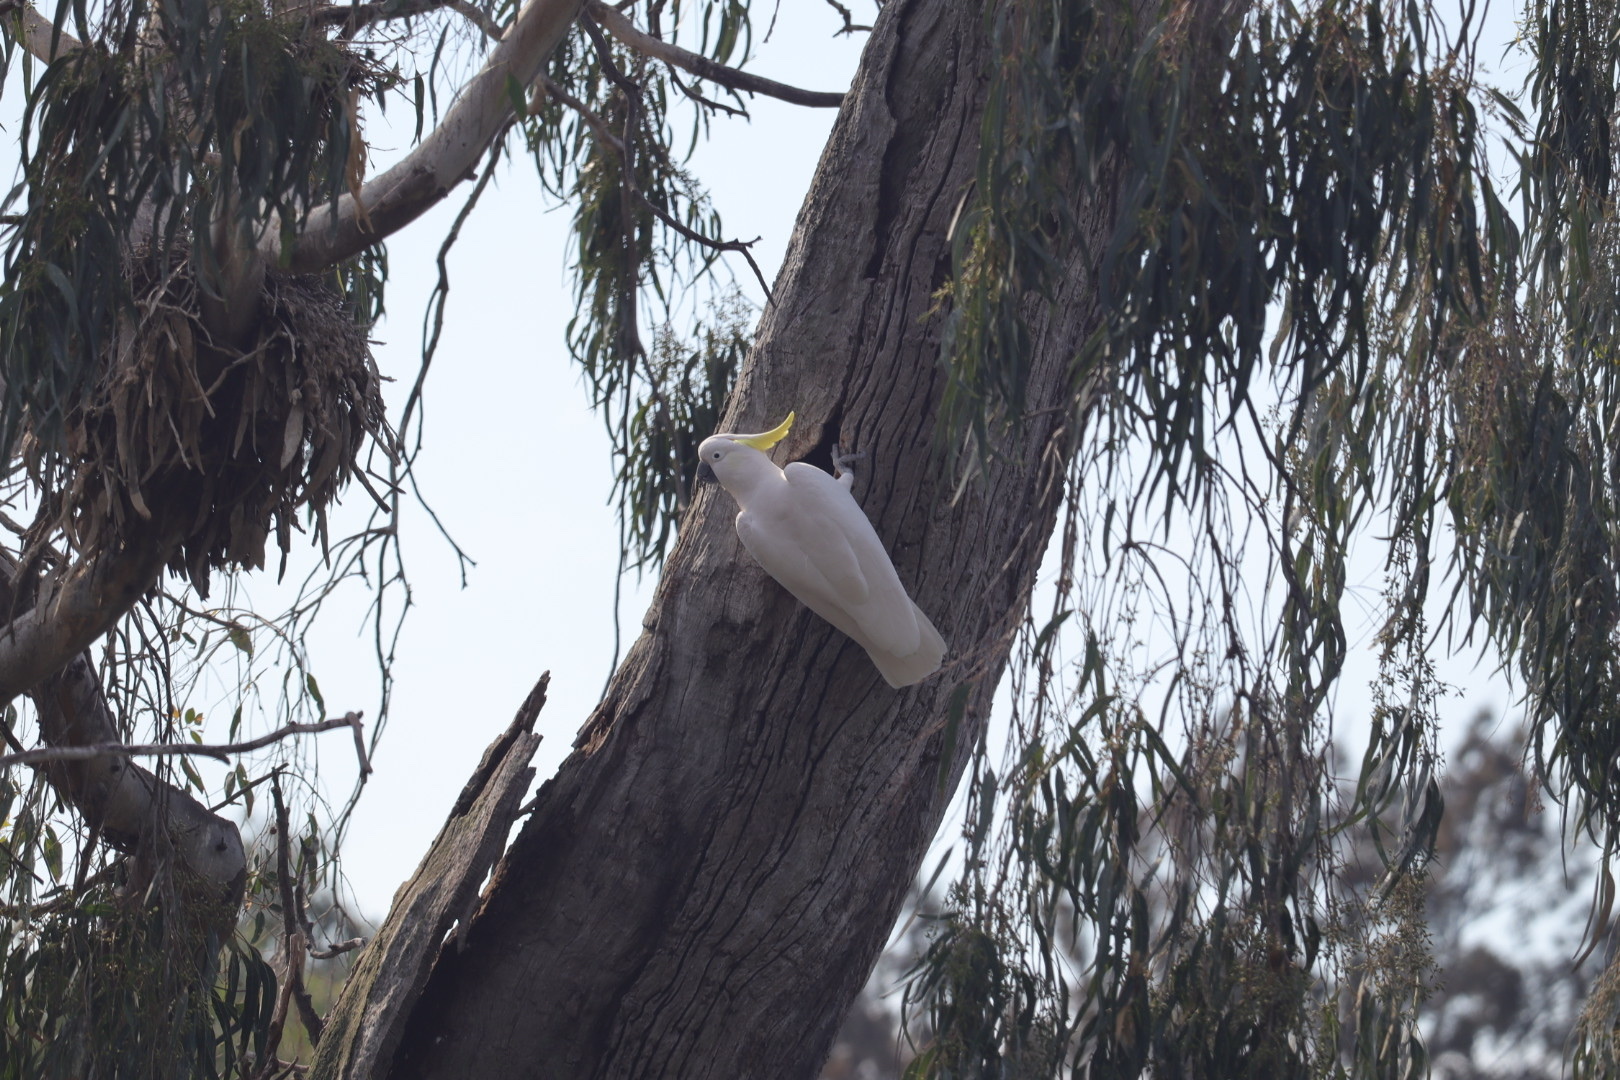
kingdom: Animalia
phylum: Chordata
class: Aves
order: Psittaciformes
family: Psittacidae
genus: Cacatua
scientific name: Cacatua galerita
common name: Sulphur-crested cockatoo
